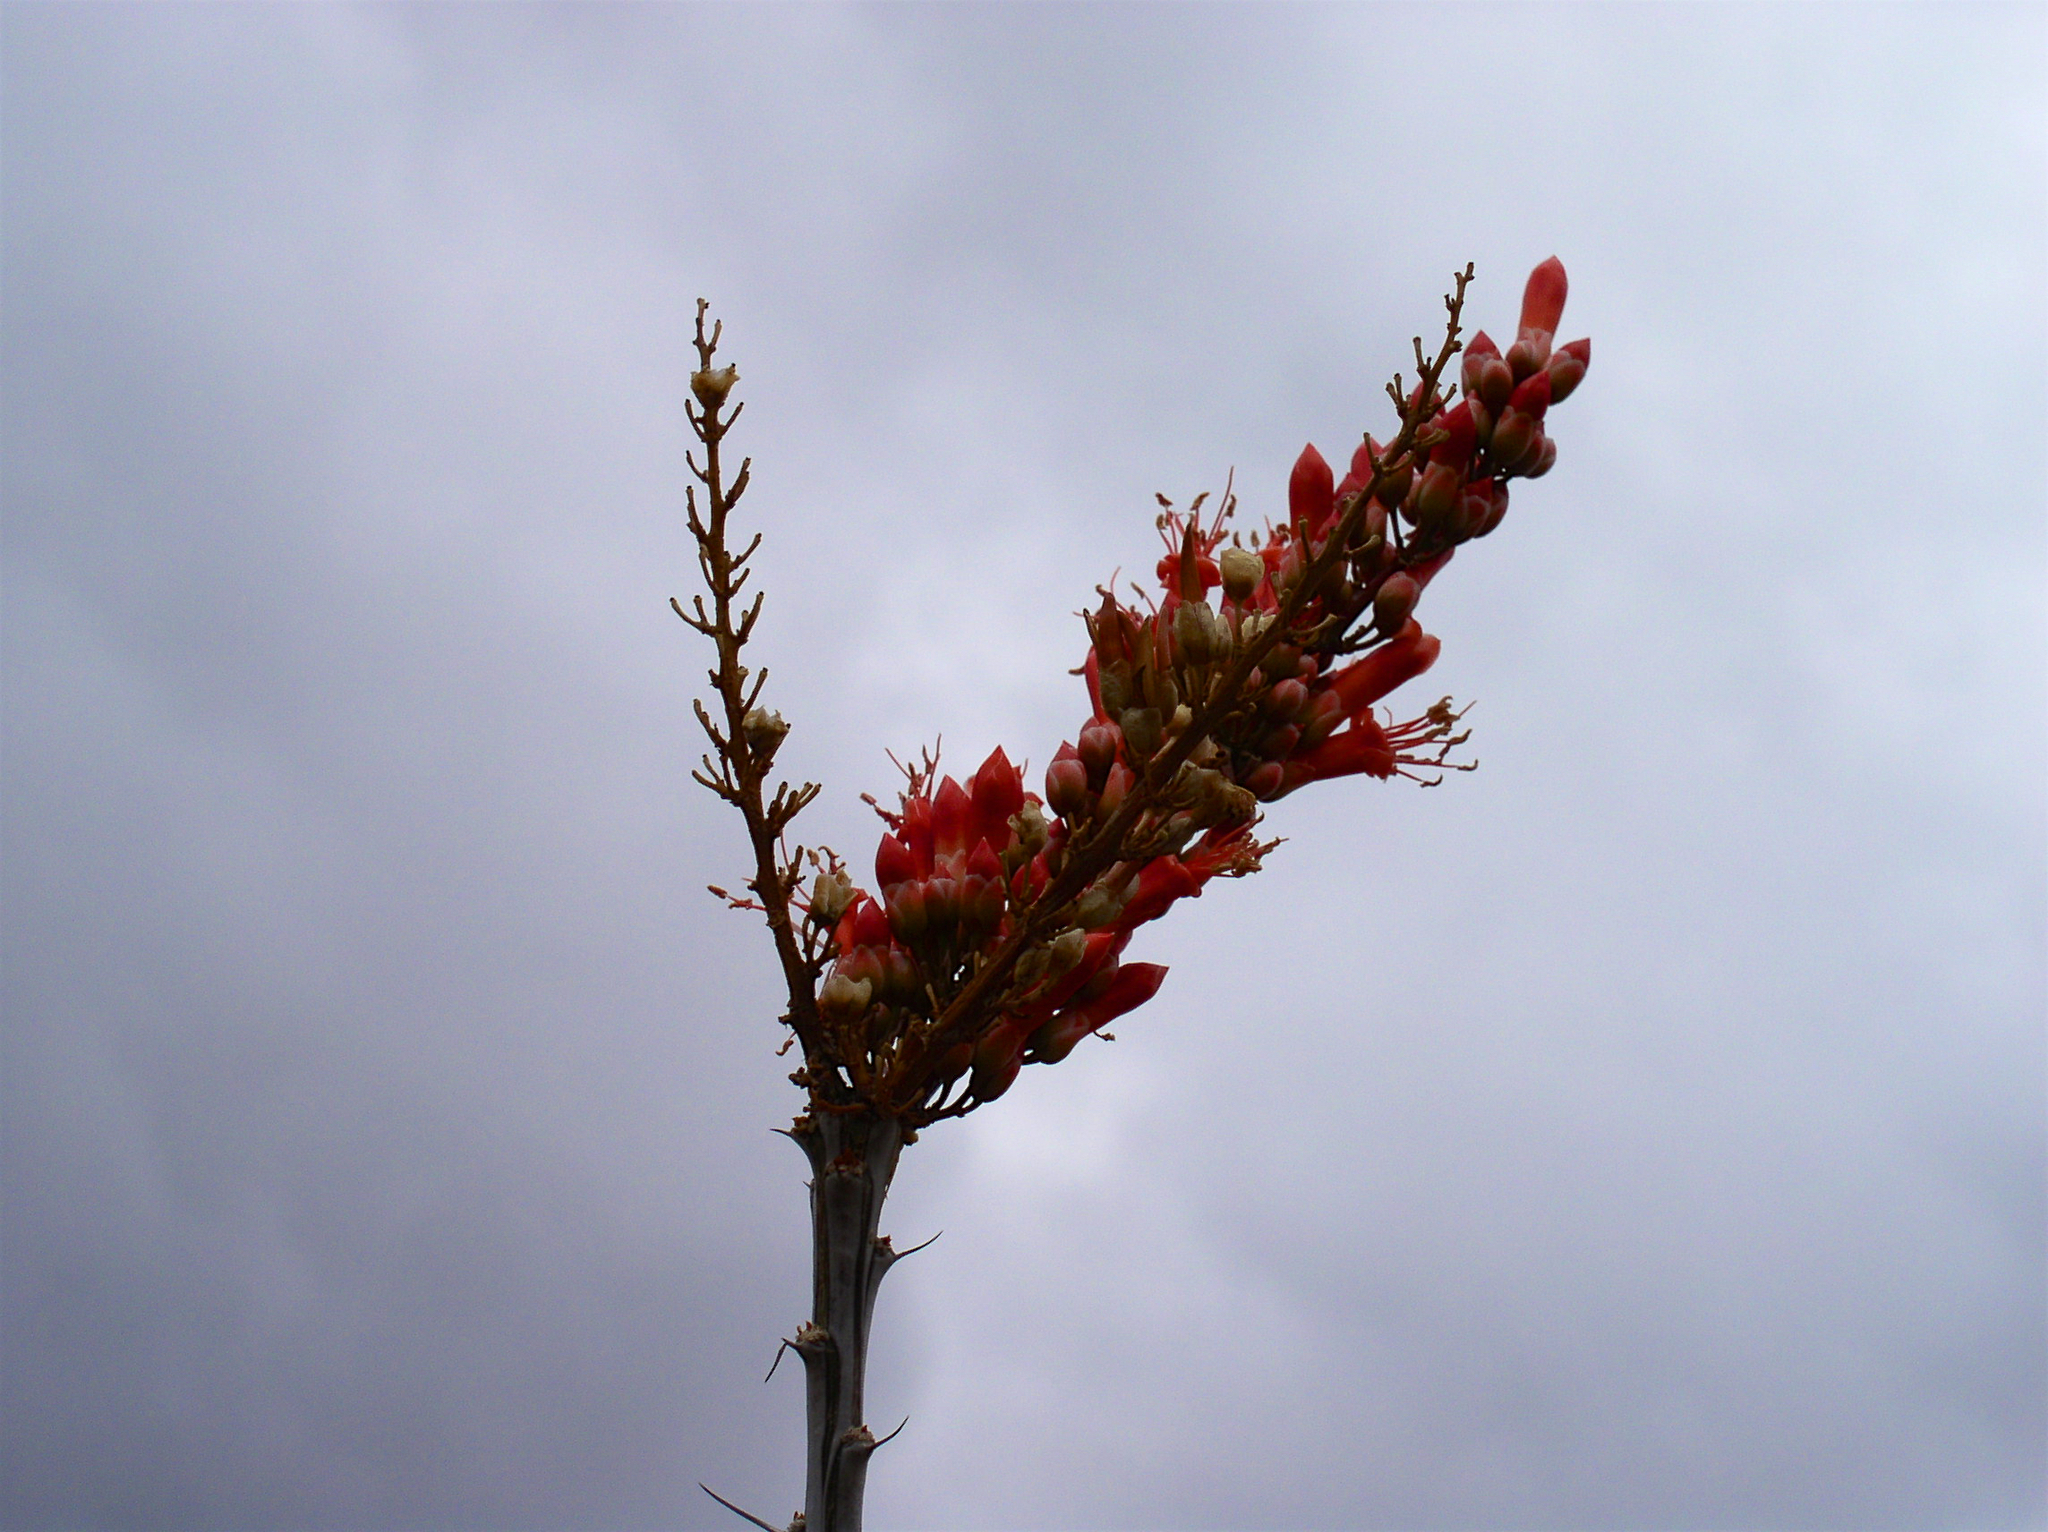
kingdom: Plantae
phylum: Tracheophyta
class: Magnoliopsida
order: Ericales
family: Fouquieriaceae
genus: Fouquieria
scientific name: Fouquieria splendens
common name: Vine-cactus
